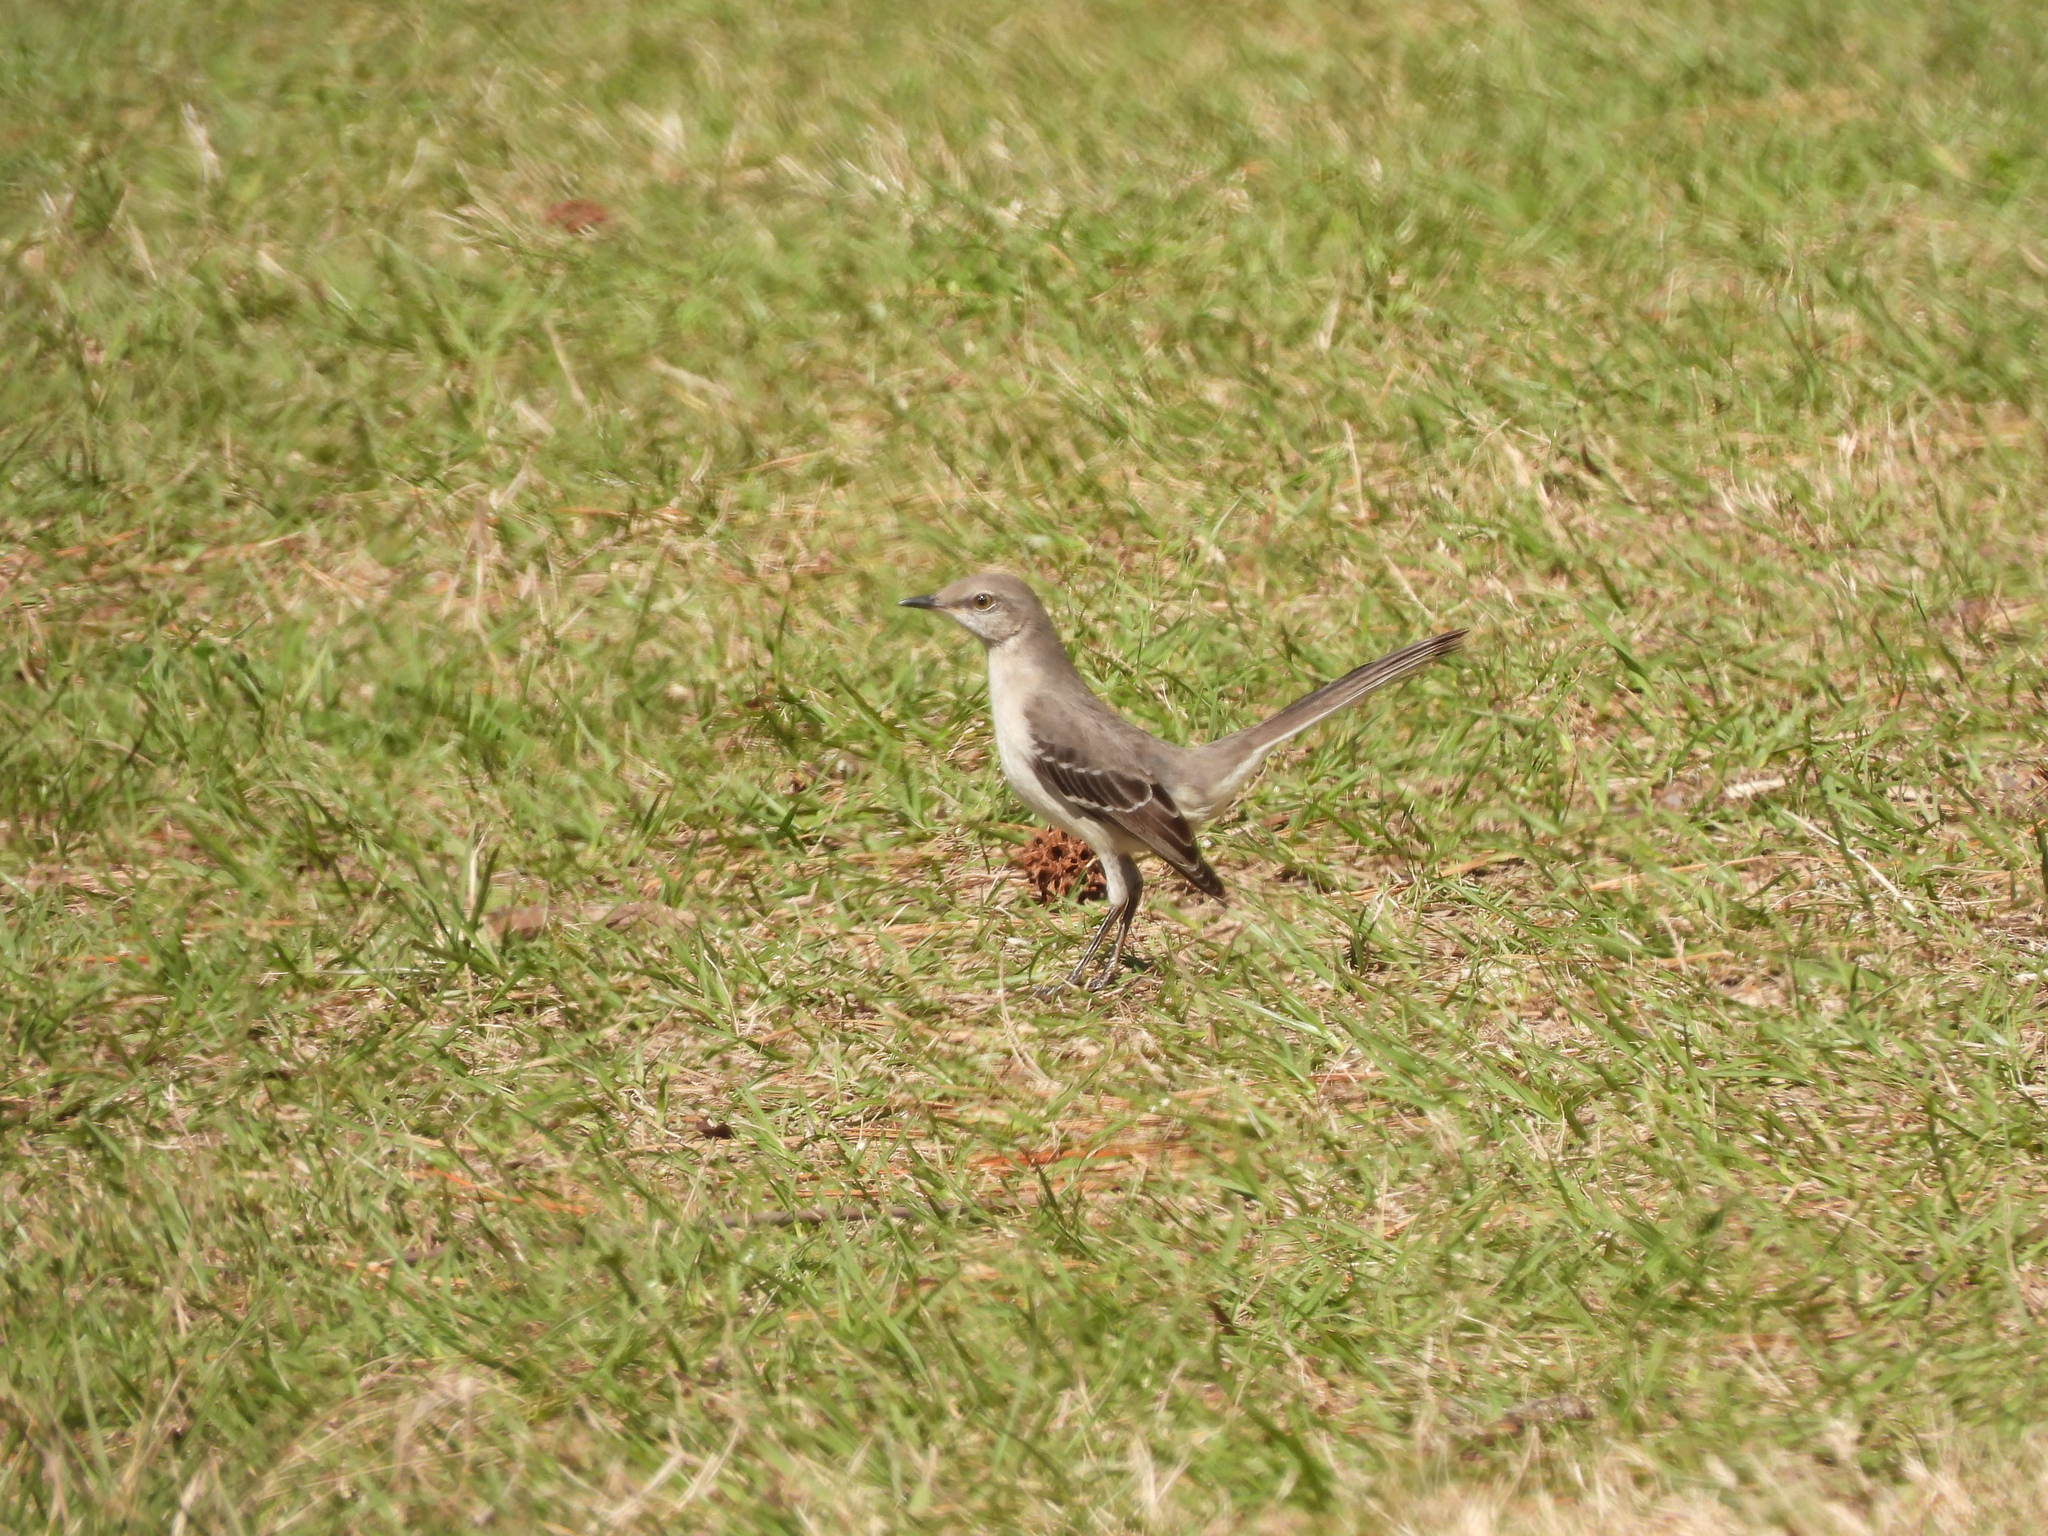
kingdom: Animalia
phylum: Chordata
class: Aves
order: Passeriformes
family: Mimidae
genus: Mimus
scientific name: Mimus polyglottos
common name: Northern mockingbird
